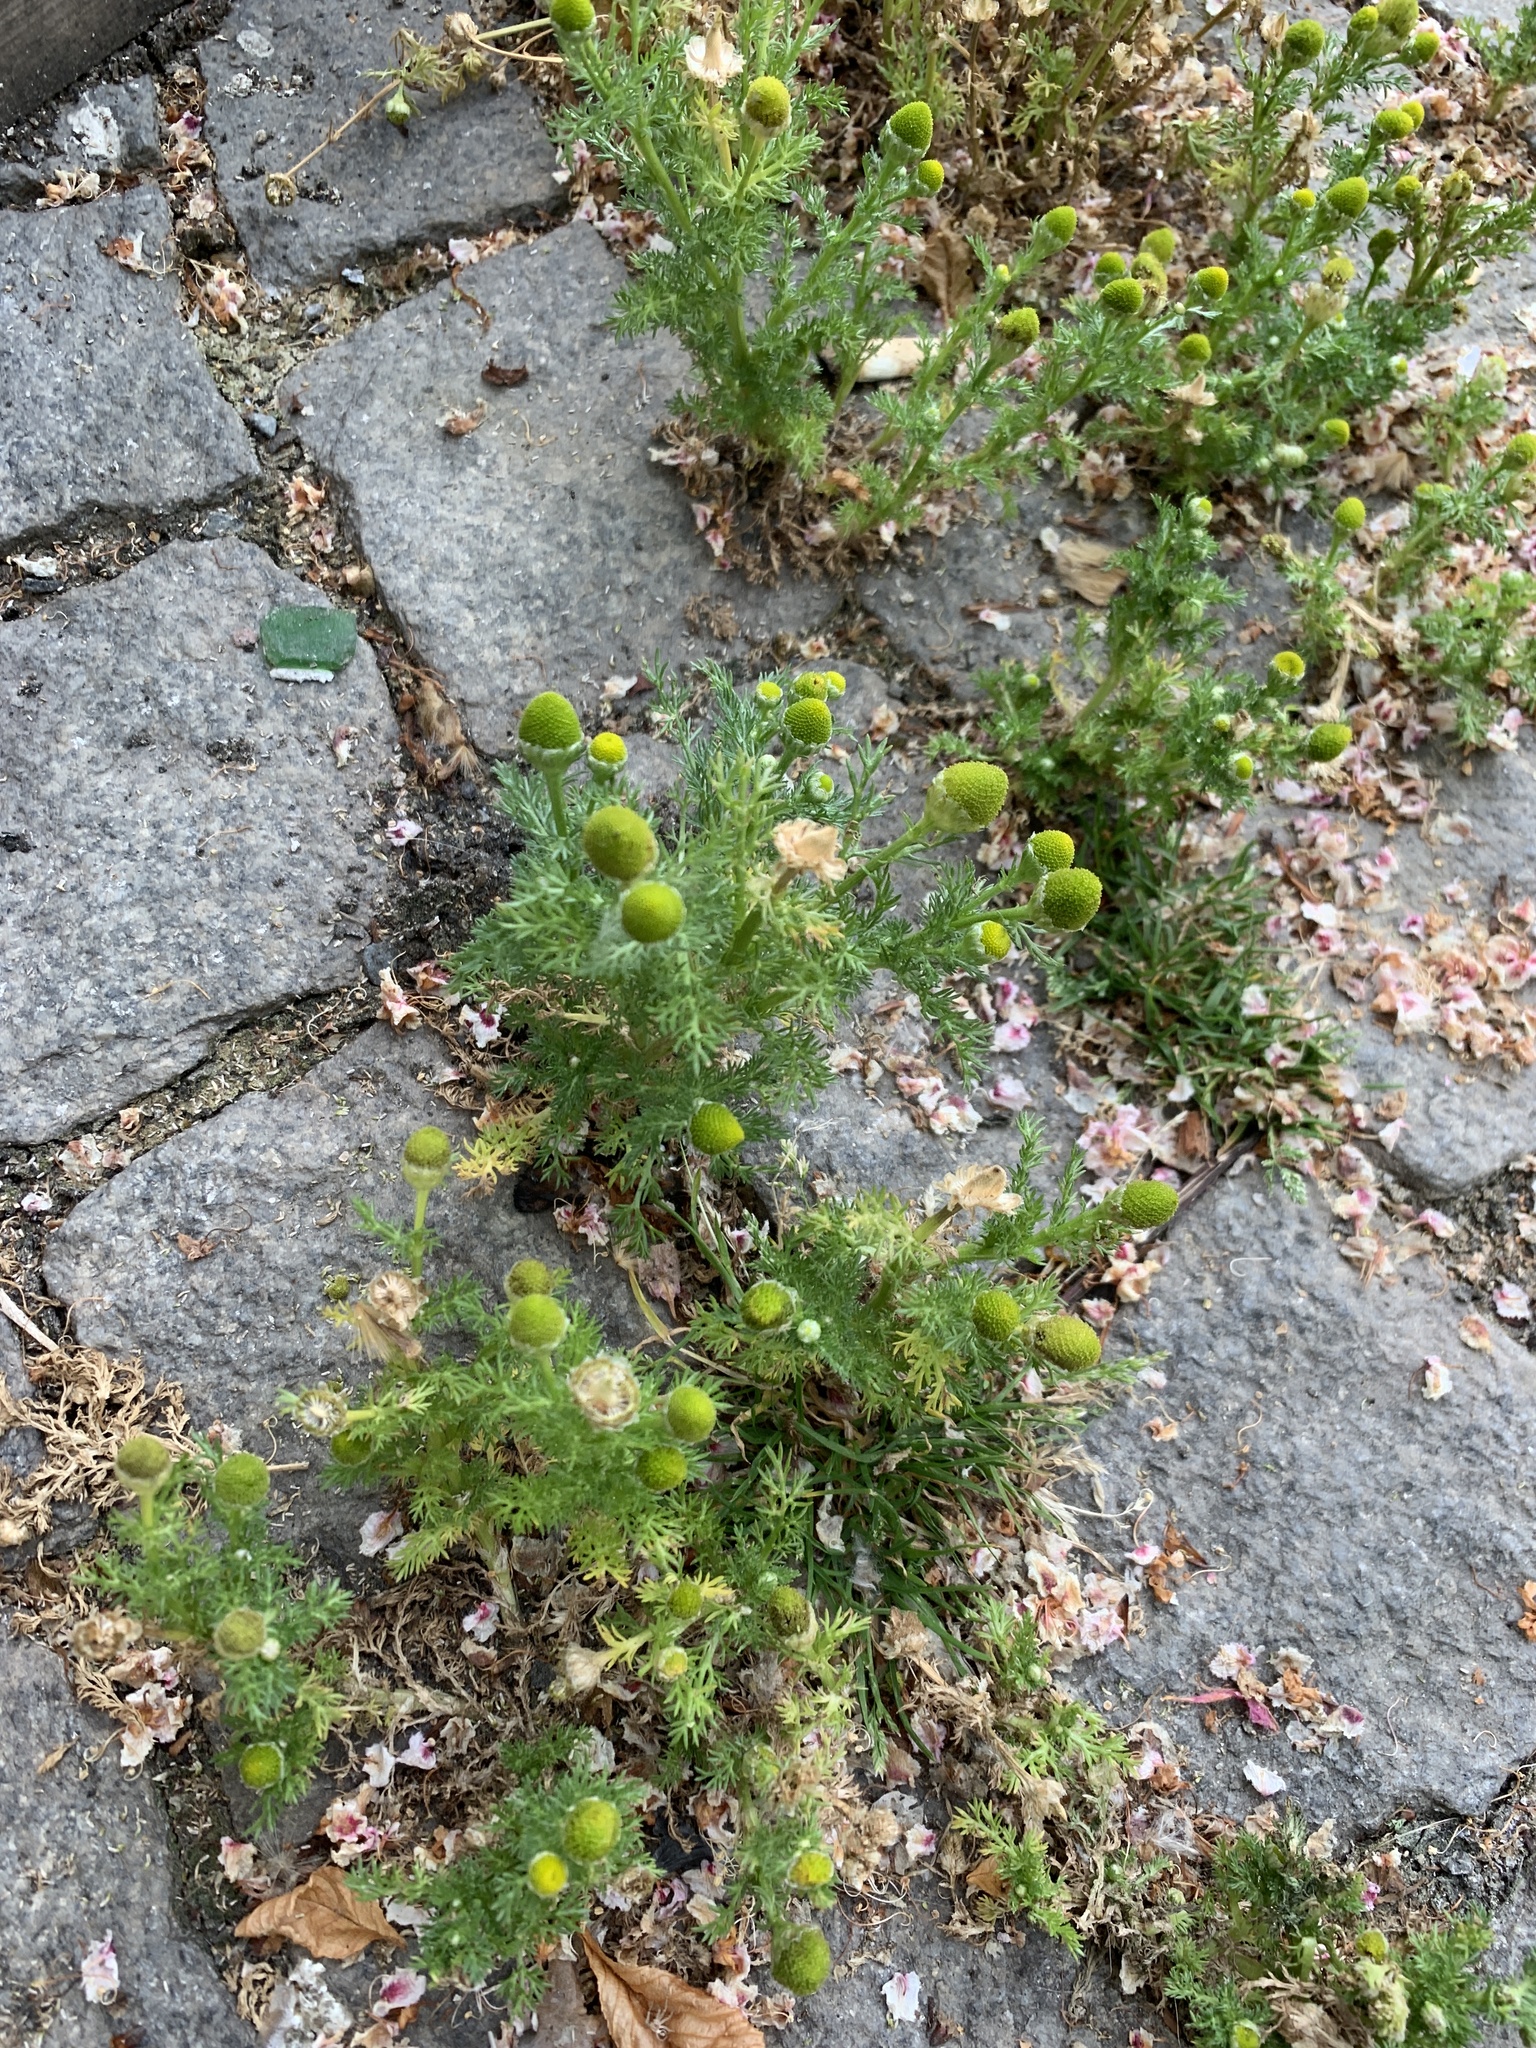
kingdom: Plantae
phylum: Tracheophyta
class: Magnoliopsida
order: Asterales
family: Asteraceae
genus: Matricaria
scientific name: Matricaria discoidea
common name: Disc mayweed
